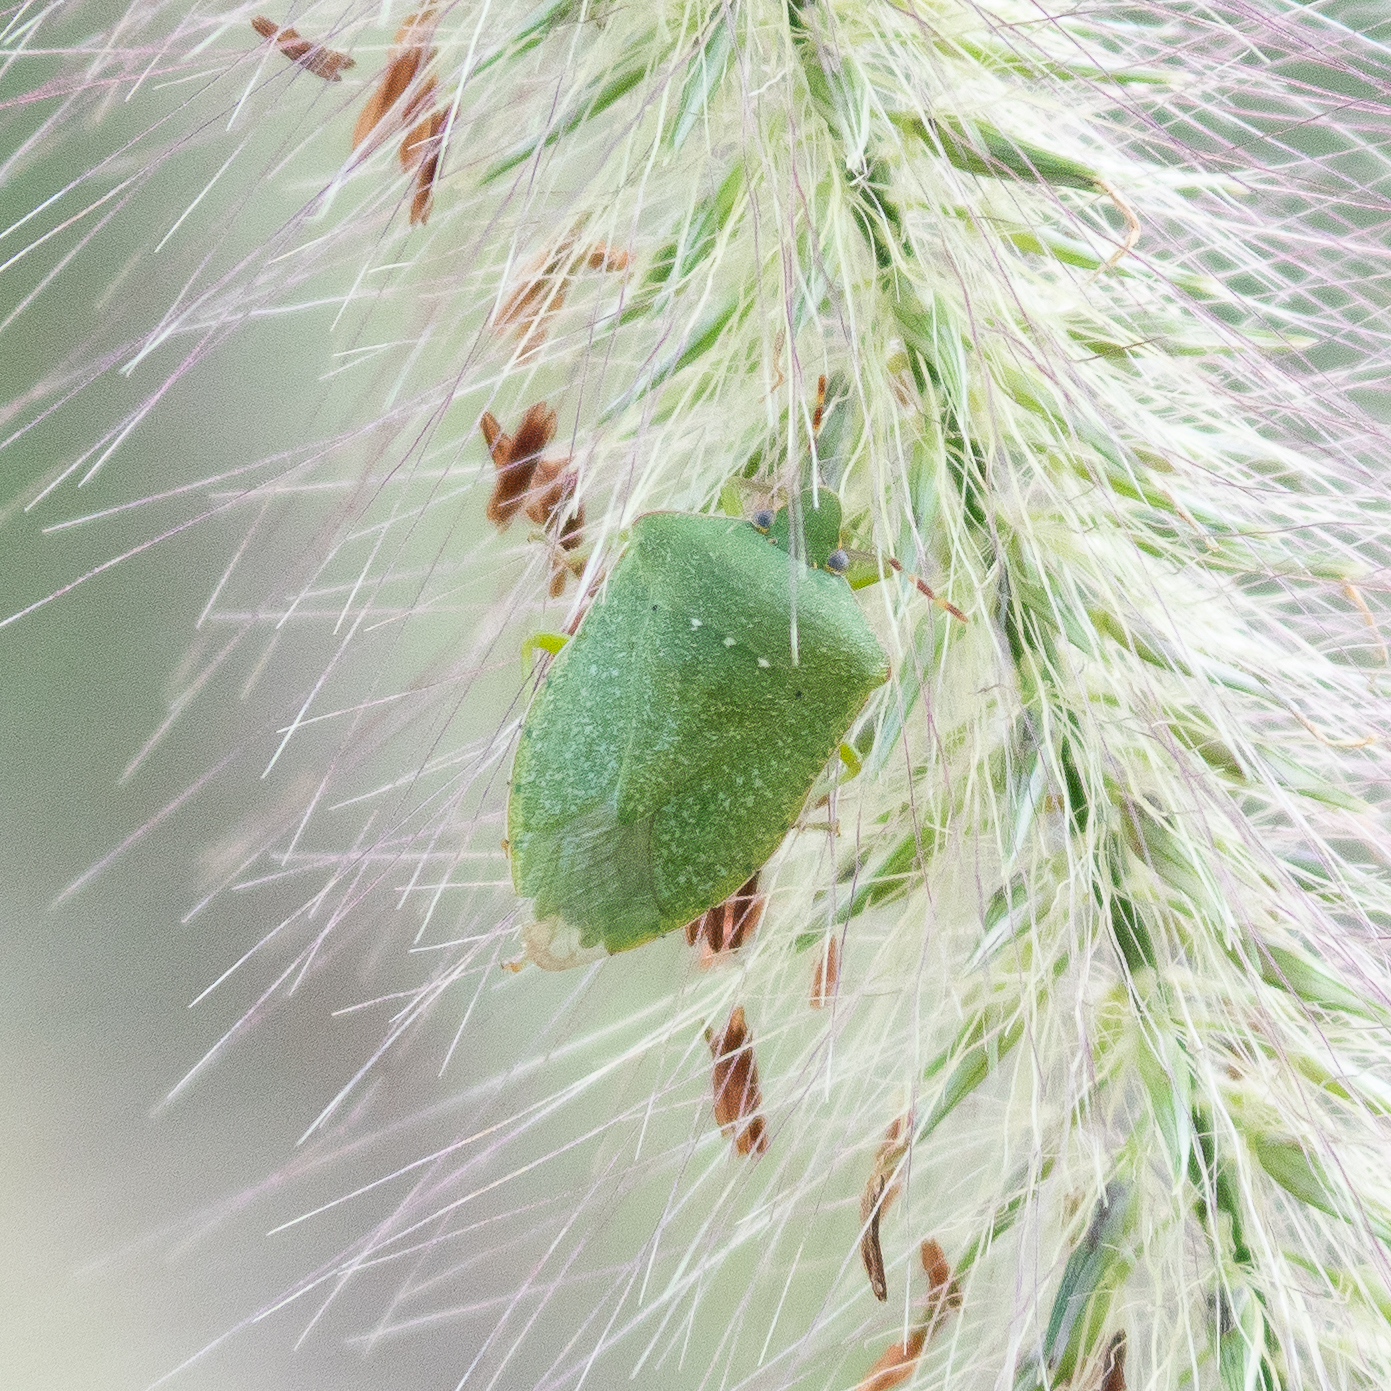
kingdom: Animalia
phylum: Arthropoda
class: Insecta
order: Hemiptera
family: Pentatomidae
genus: Nezara
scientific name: Nezara viridula
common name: Southern green stink bug
